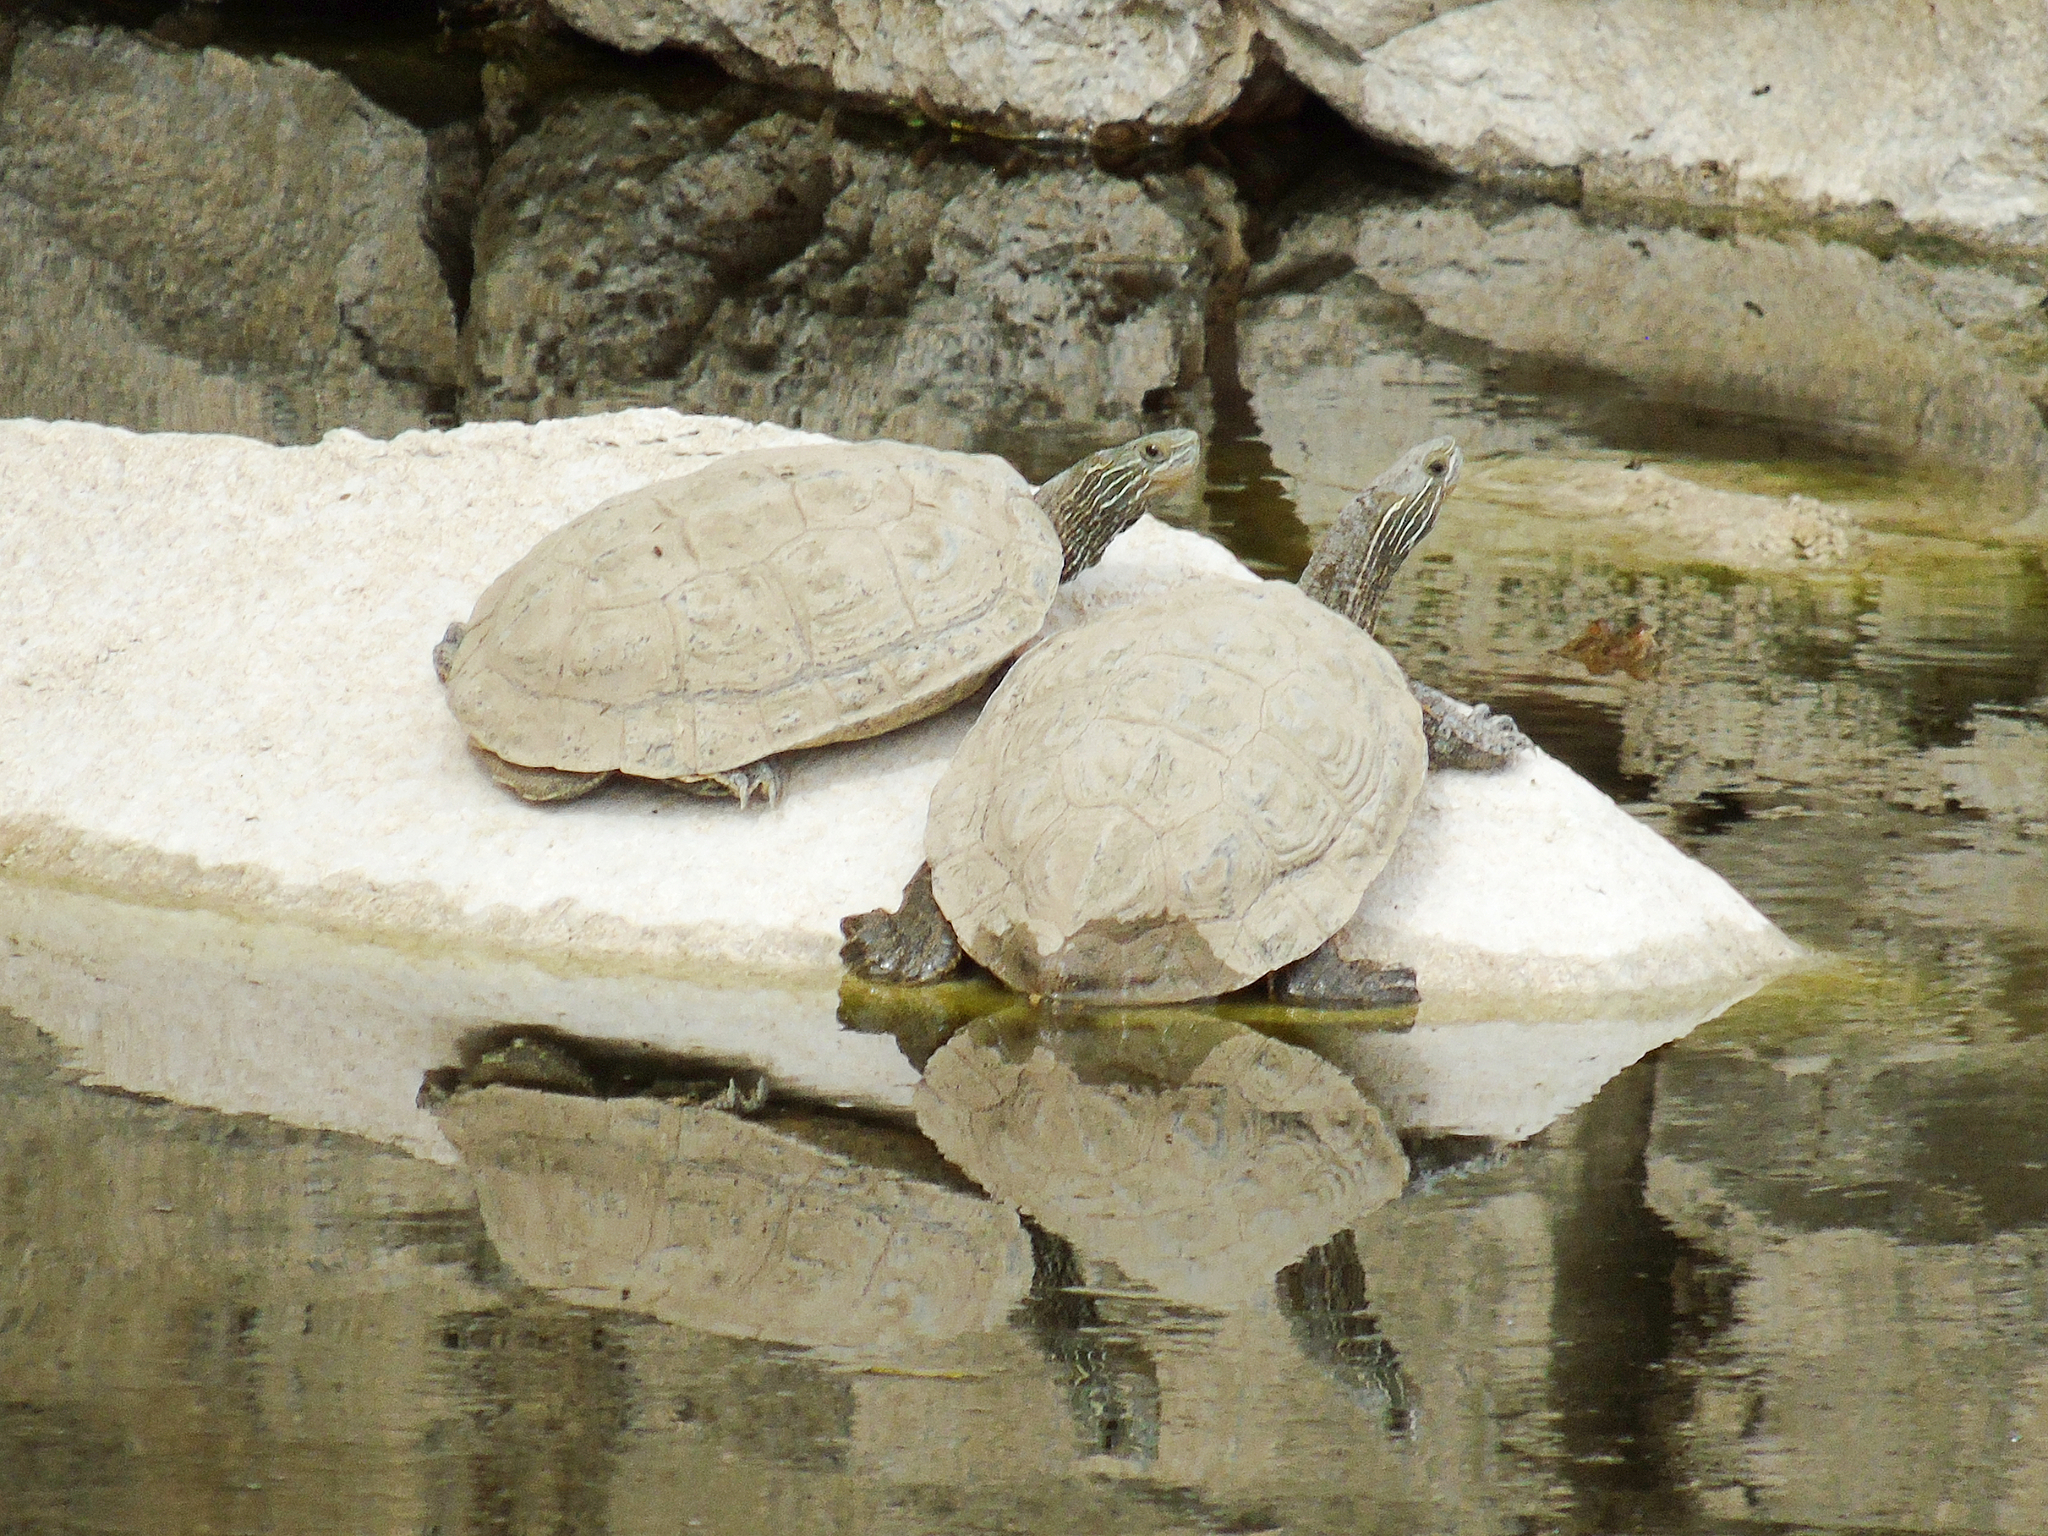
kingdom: Animalia
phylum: Chordata
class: Testudines
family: Geoemydidae
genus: Mauremys
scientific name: Mauremys caspica
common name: Caspian turtle
